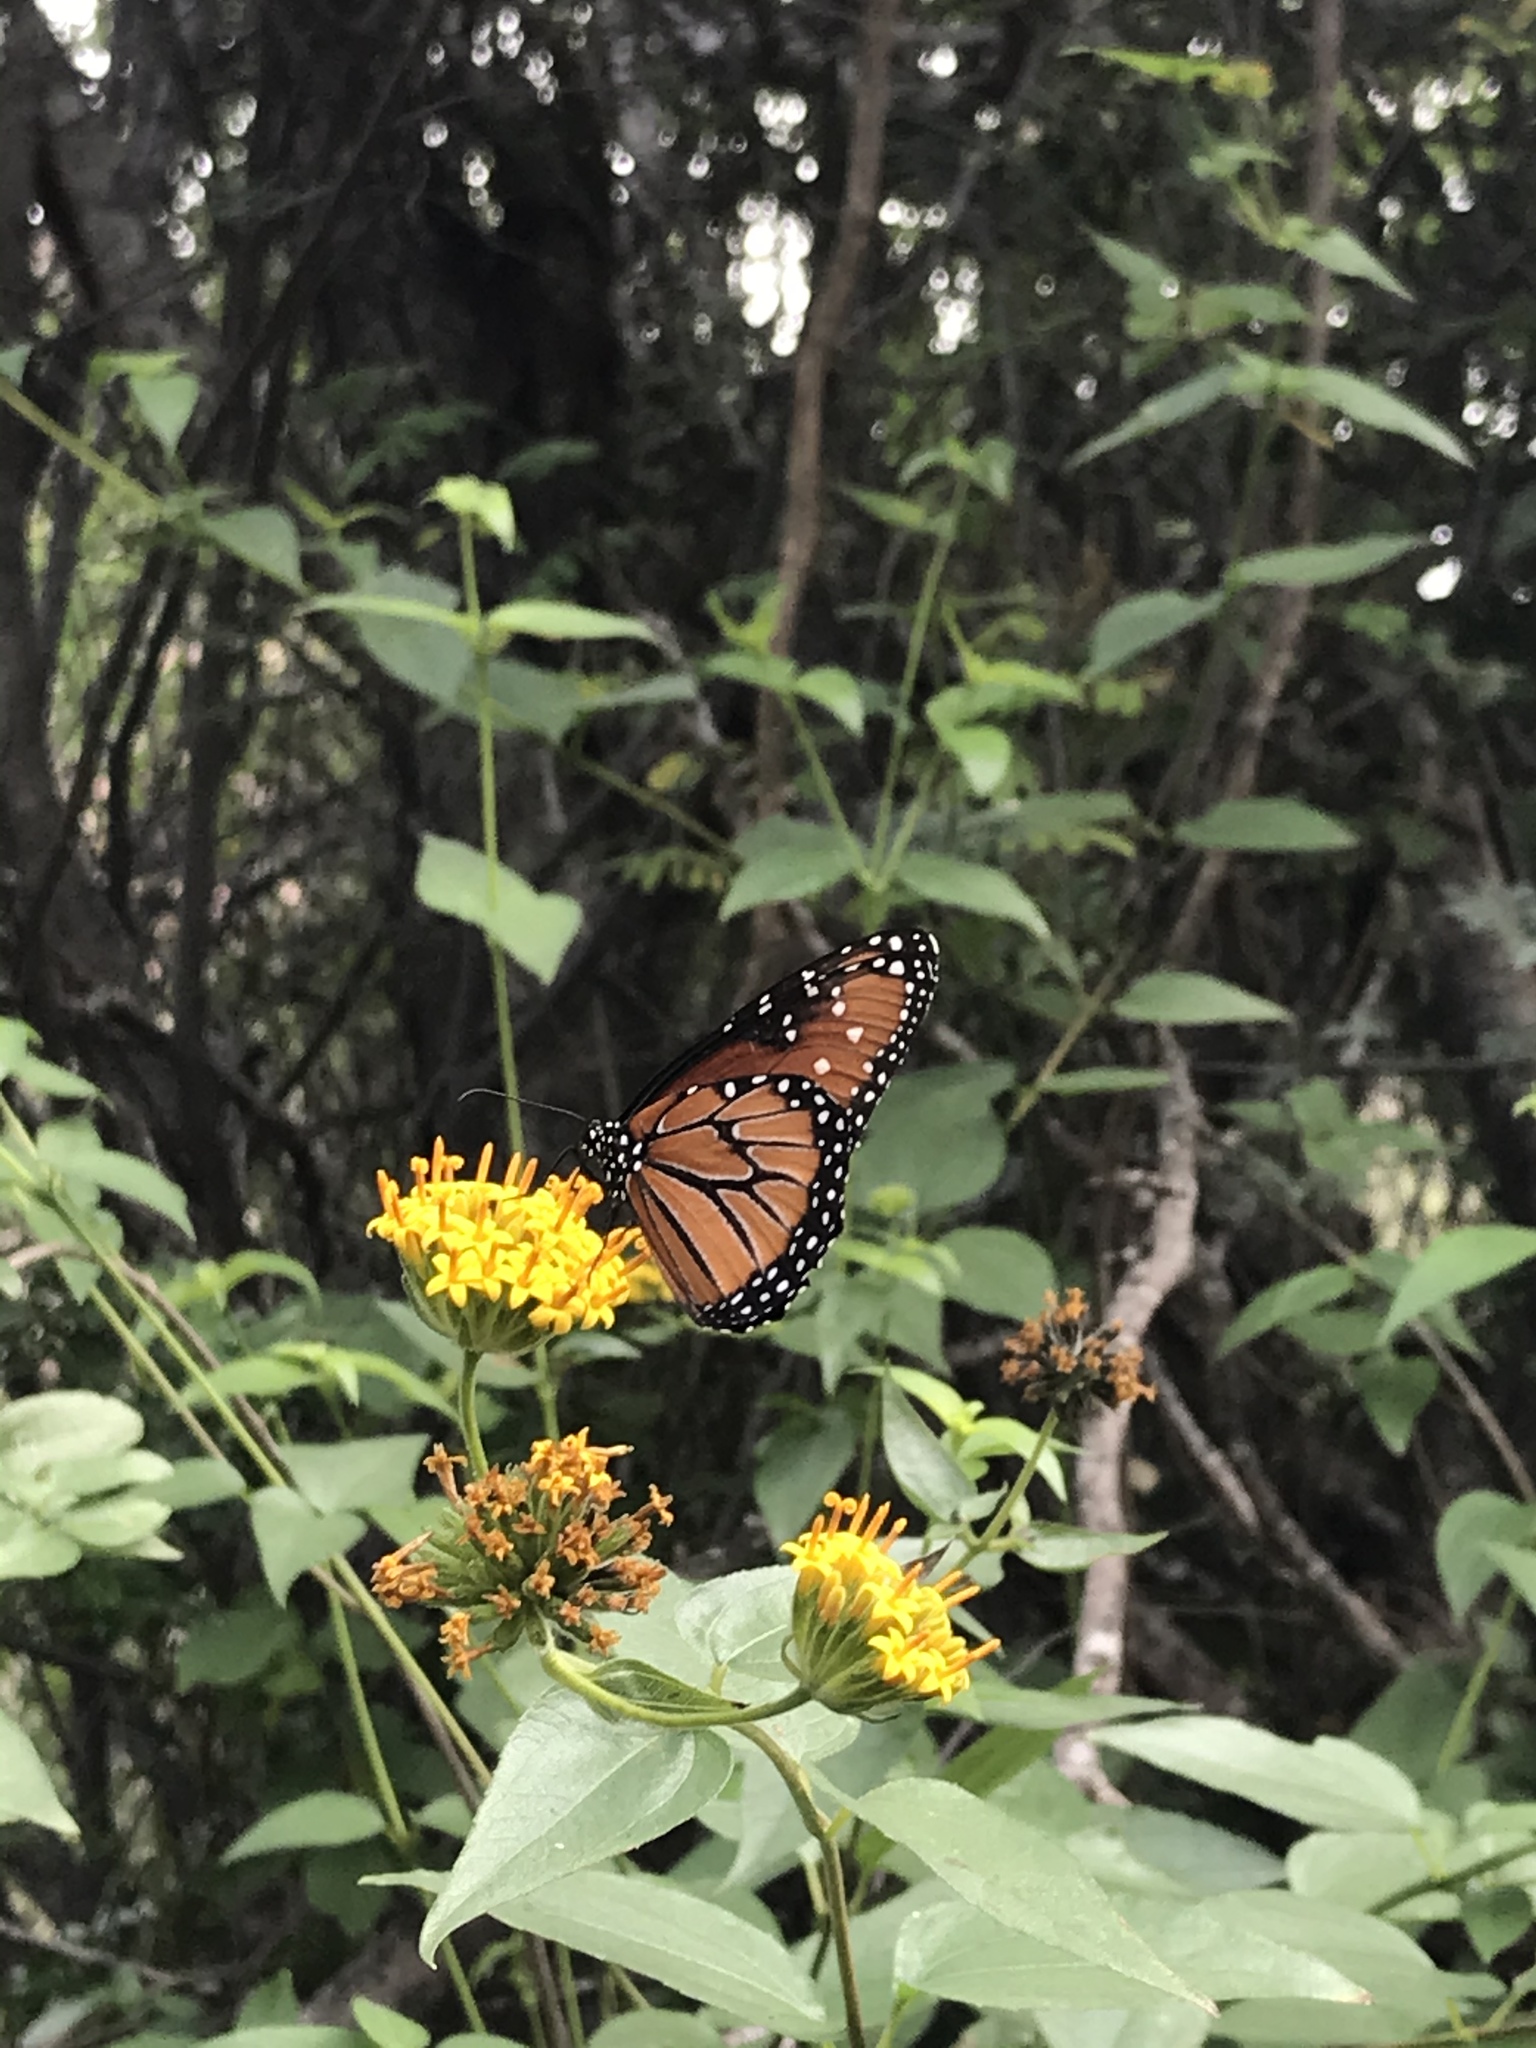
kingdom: Animalia
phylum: Arthropoda
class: Insecta
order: Lepidoptera
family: Nymphalidae
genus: Danaus
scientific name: Danaus gilippus
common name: Queen
